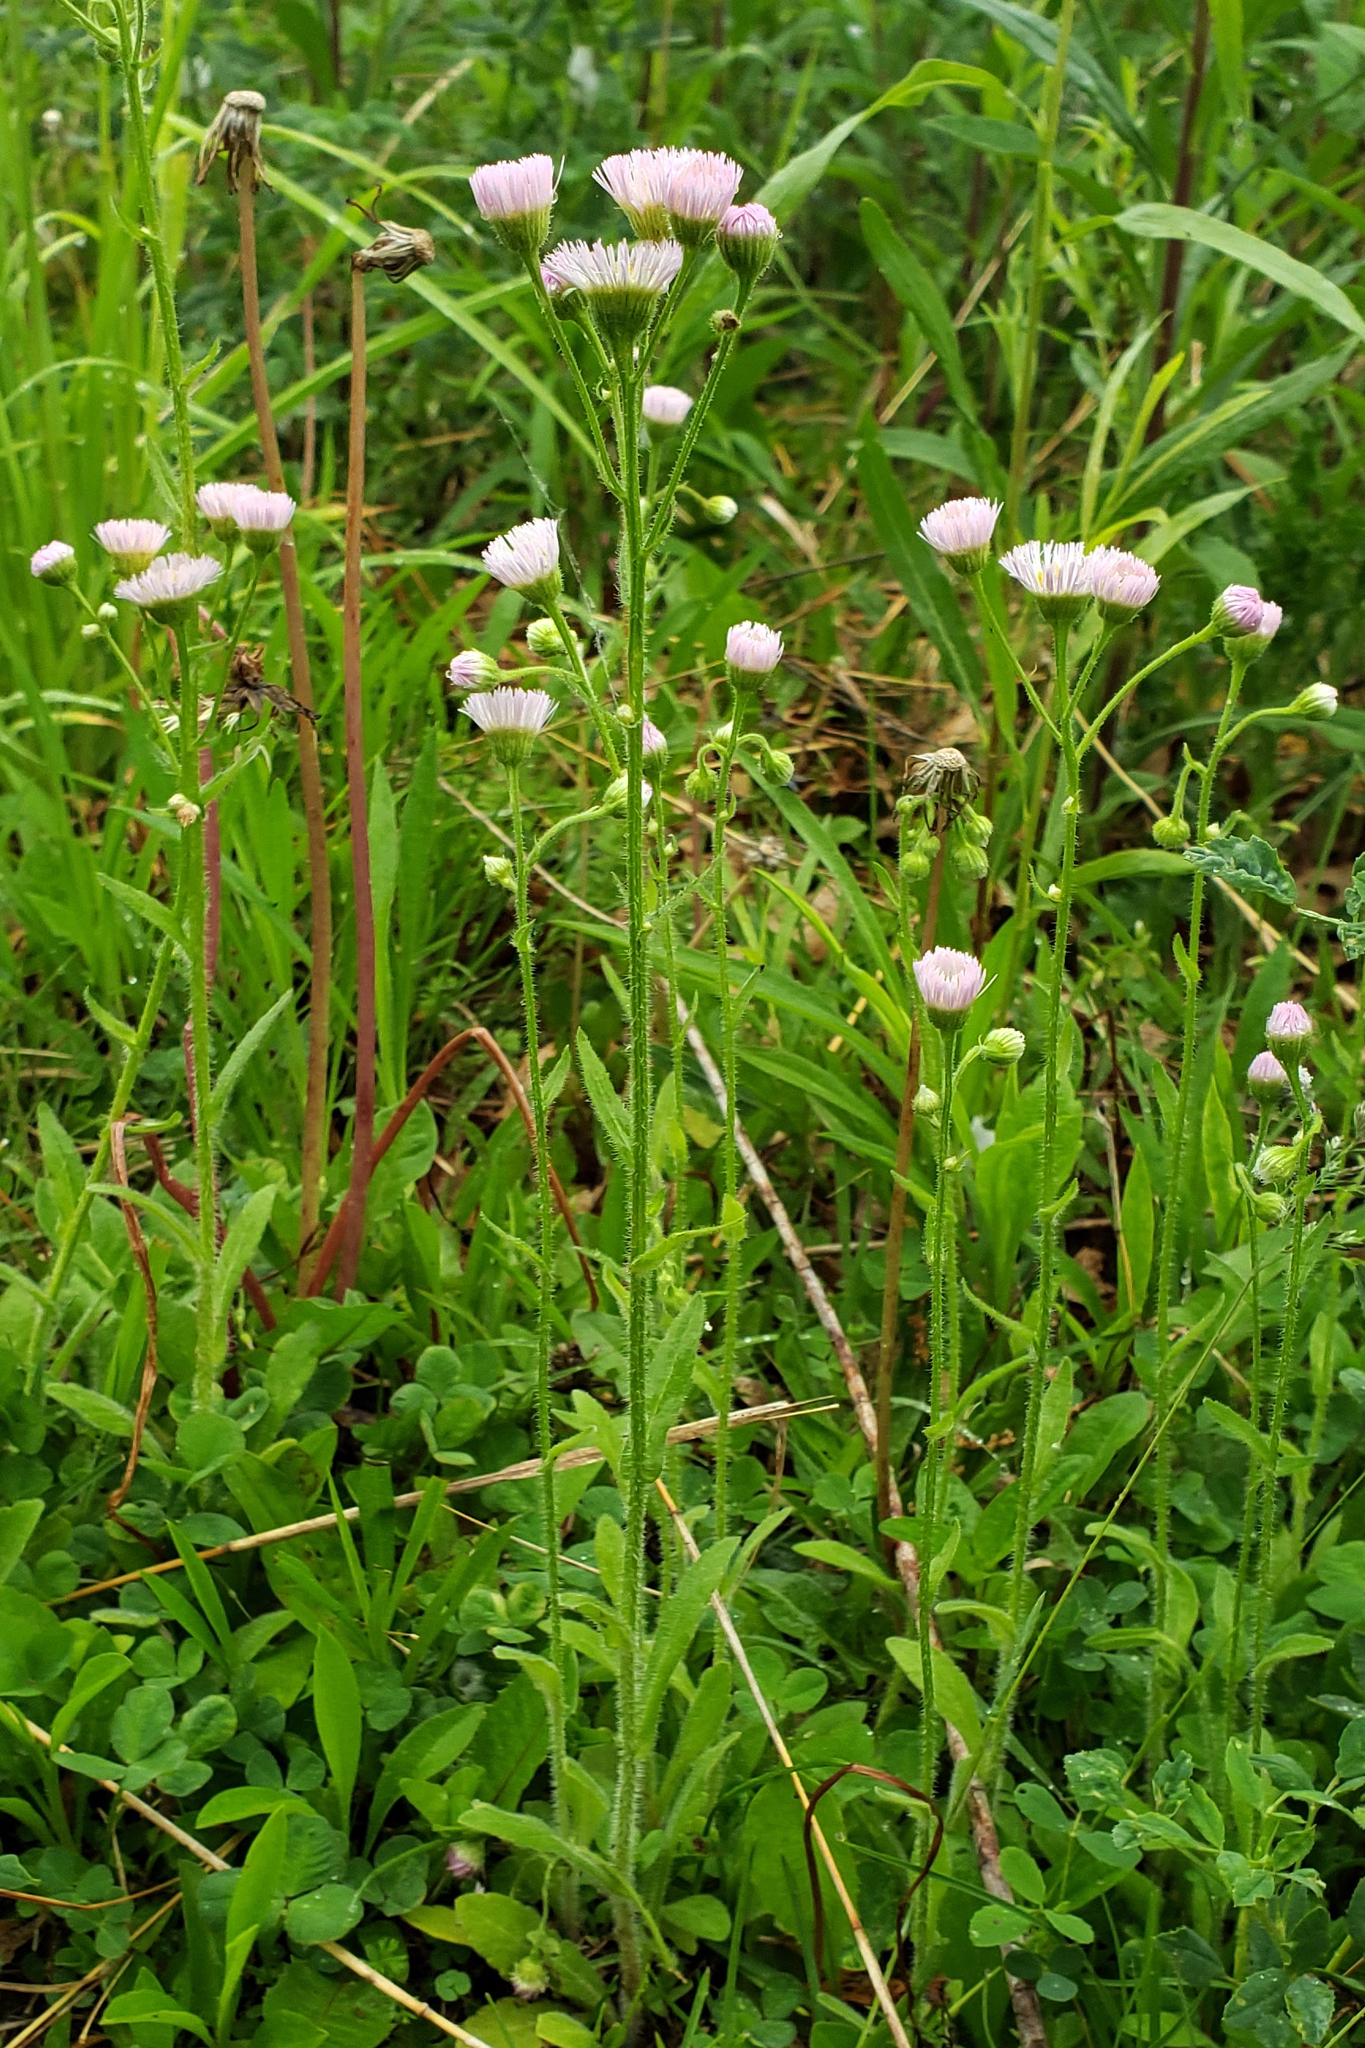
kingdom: Plantae
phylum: Tracheophyta
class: Magnoliopsida
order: Asterales
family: Asteraceae
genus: Erigeron
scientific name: Erigeron philadelphicus
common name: Robin's-plantain
